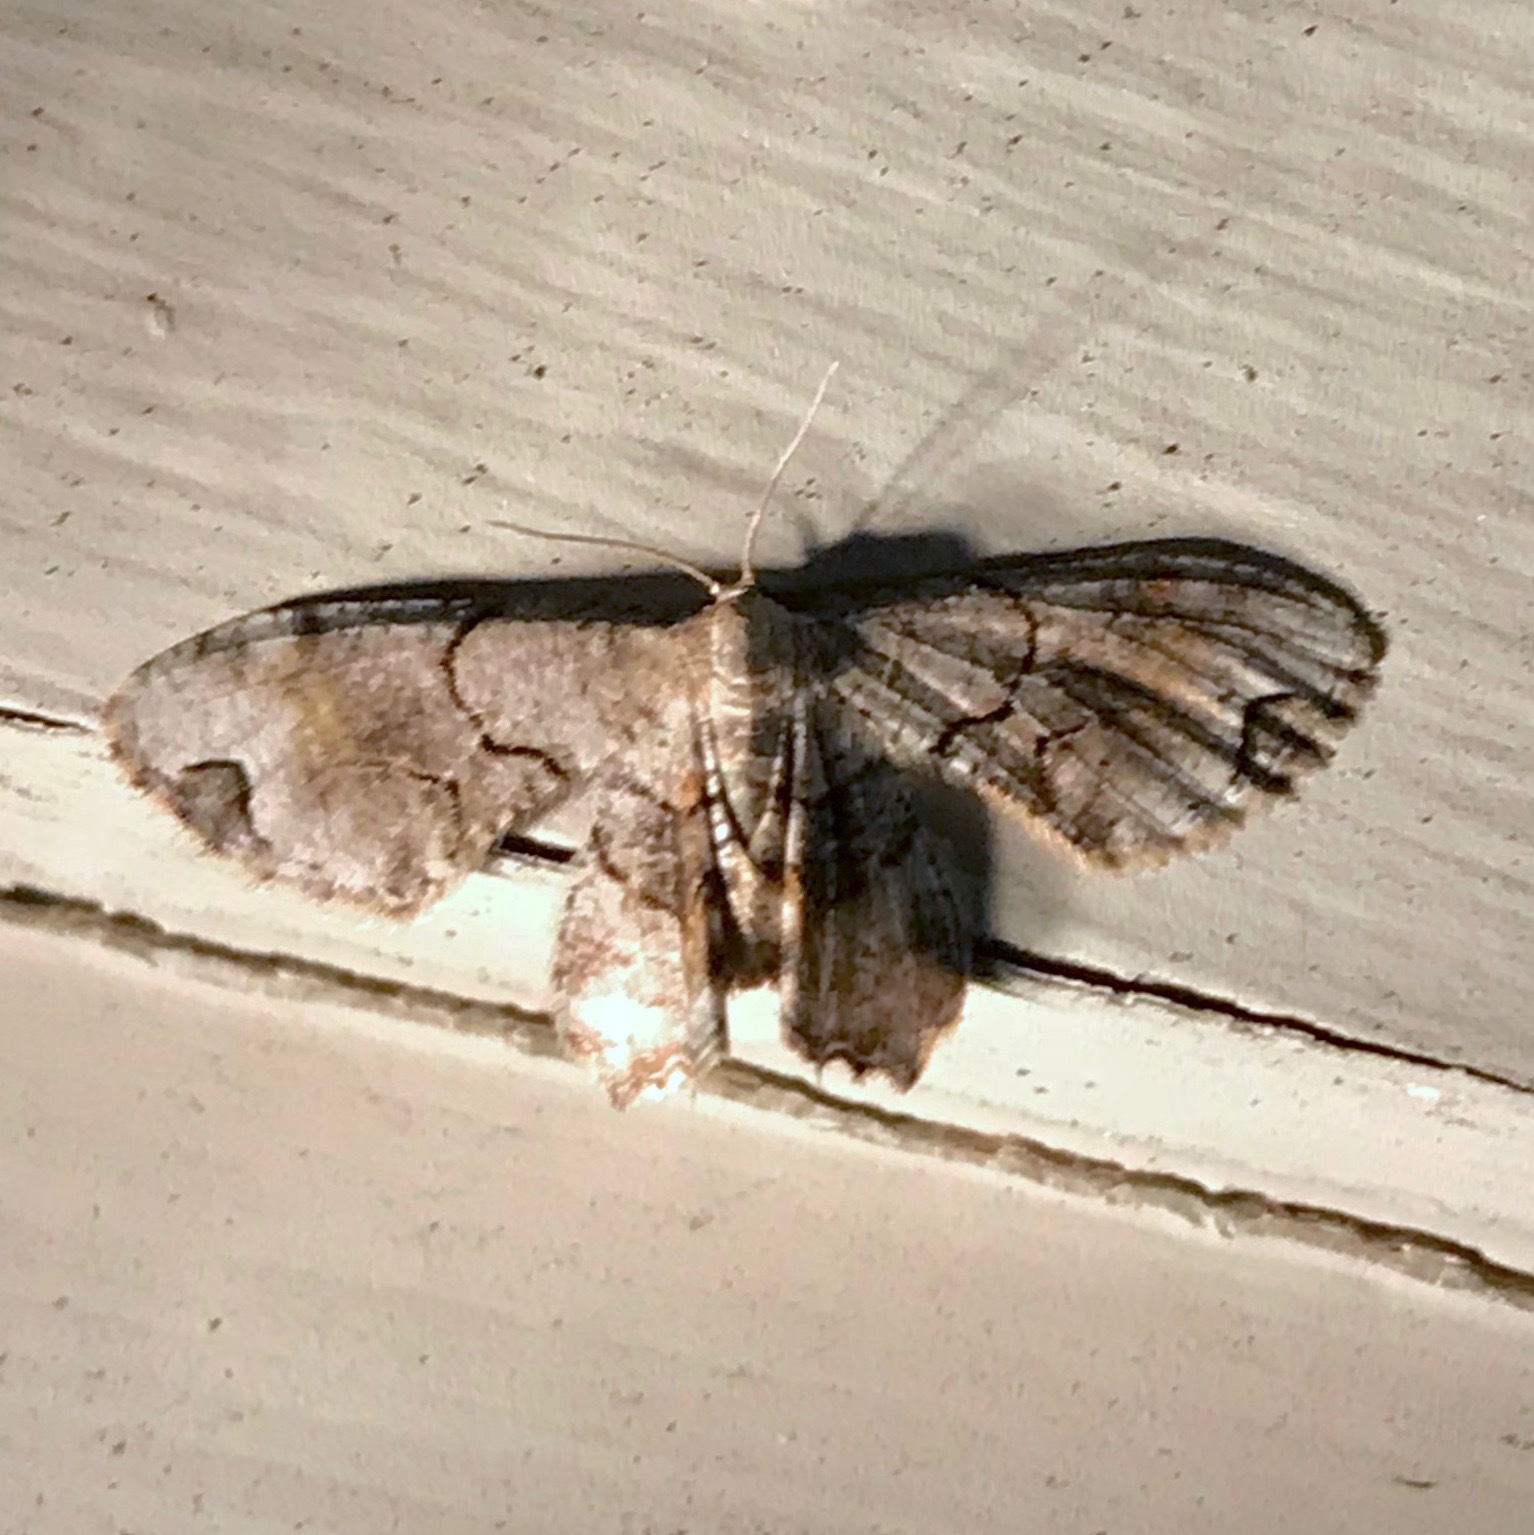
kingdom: Animalia
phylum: Arthropoda
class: Insecta
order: Lepidoptera
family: Uraniidae
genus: Epiplema
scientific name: Epiplema Callizzia amorata
